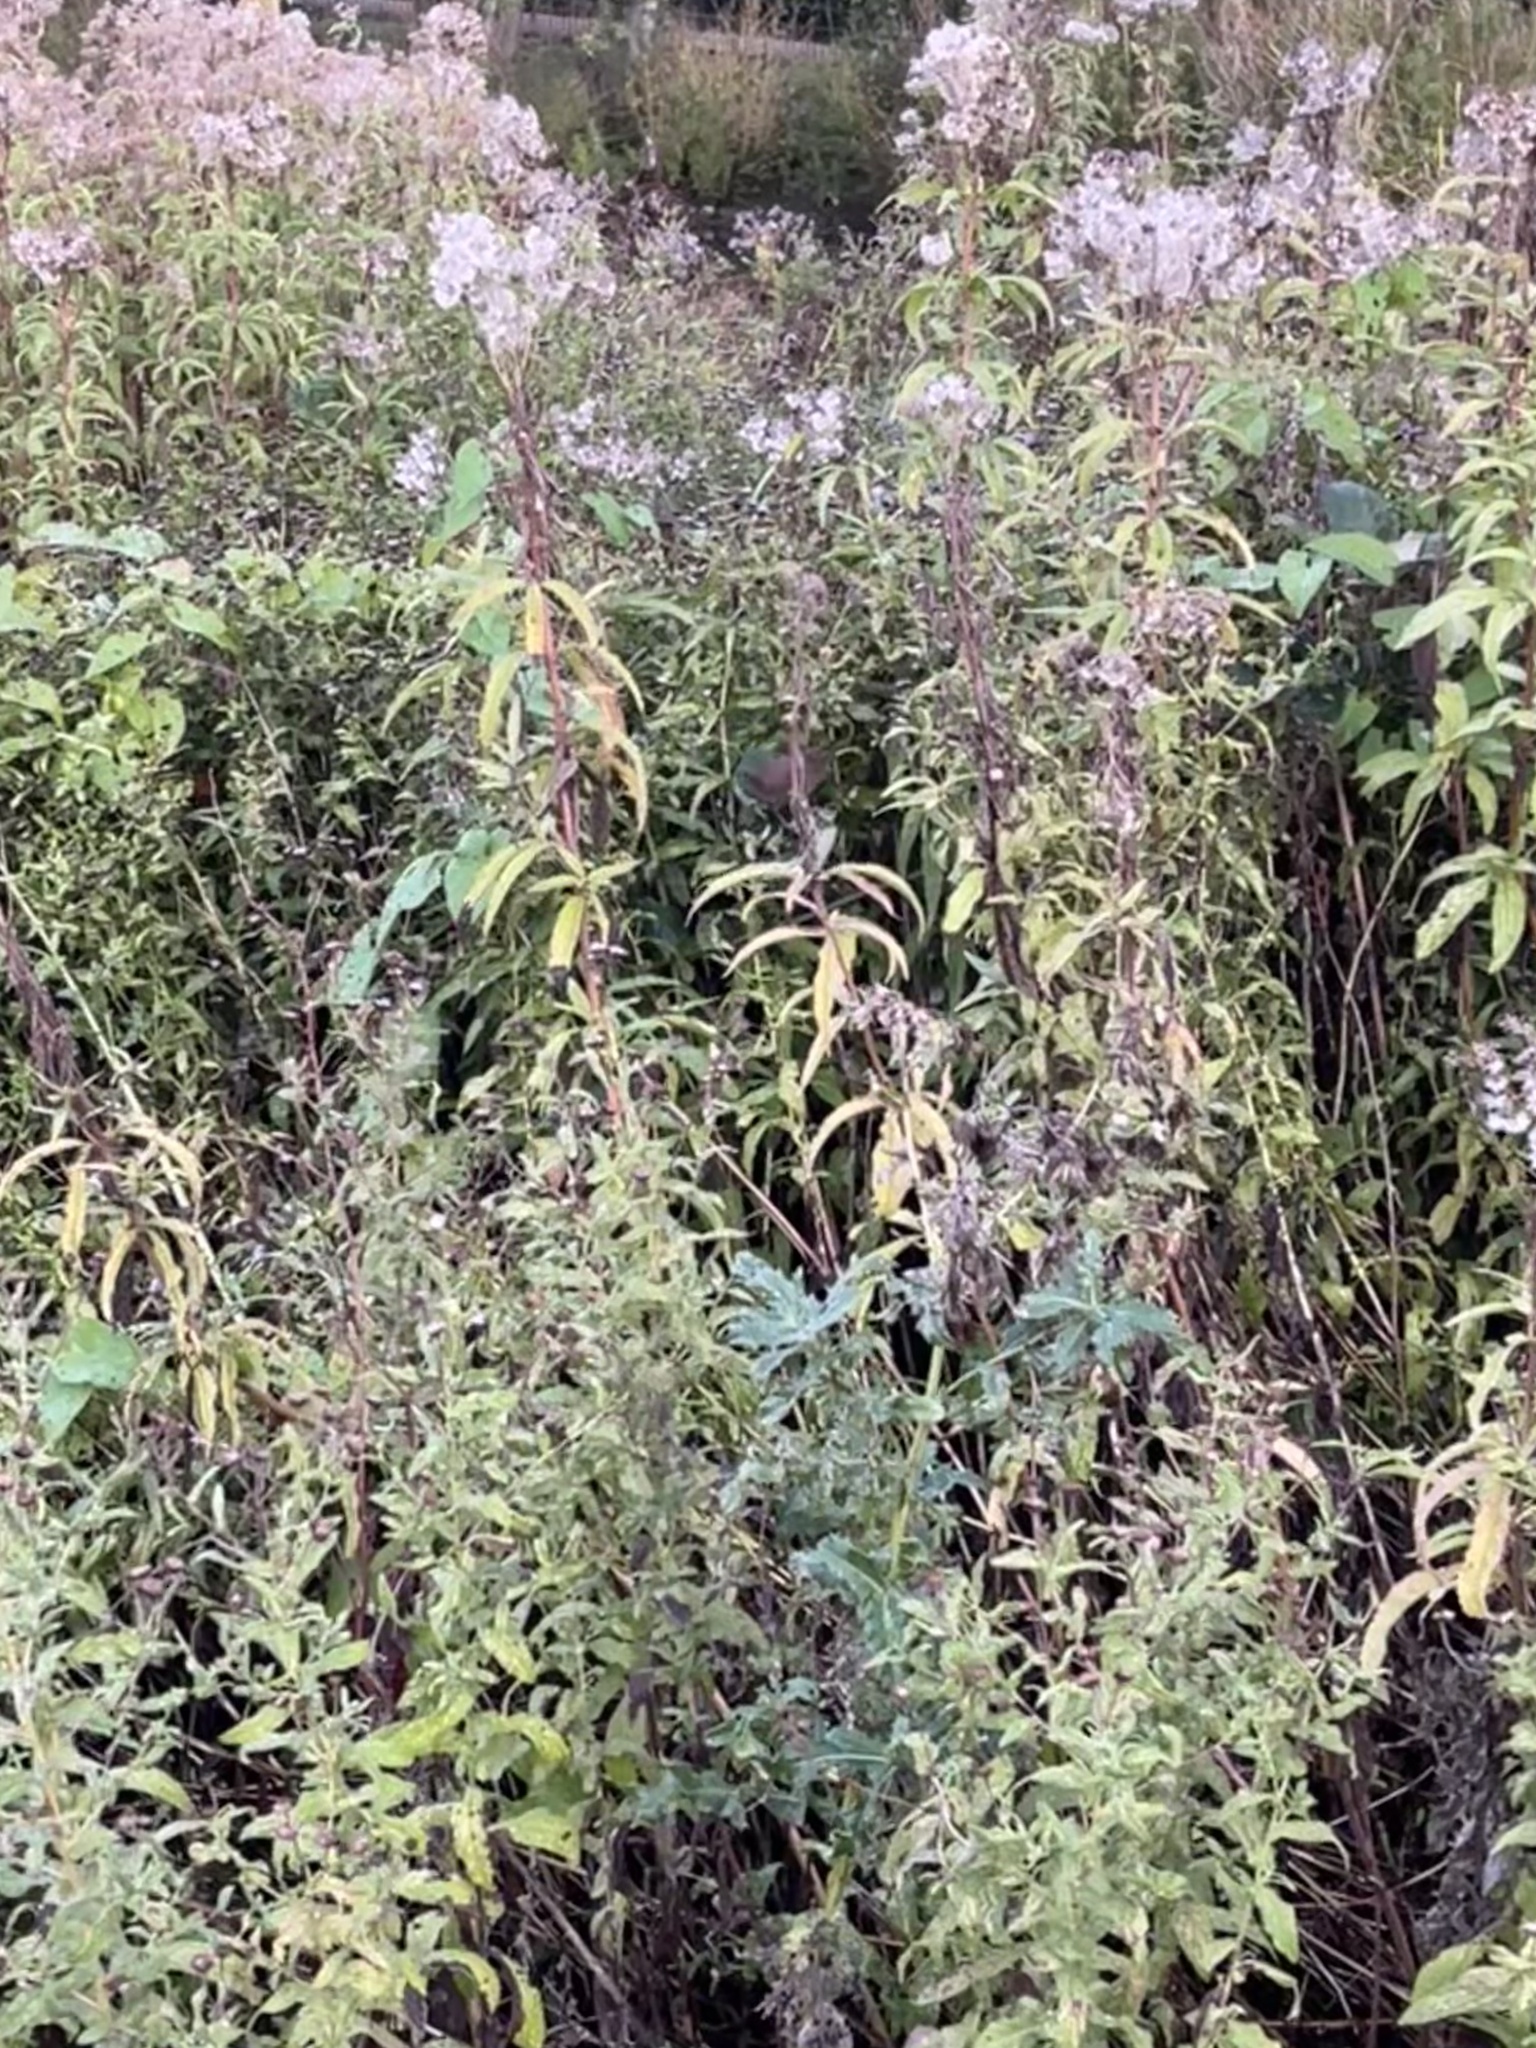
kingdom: Animalia
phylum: Chordata
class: Aves
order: Passeriformes
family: Troglodytidae
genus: Troglodytes
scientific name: Troglodytes troglodytes
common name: Eurasian wren
